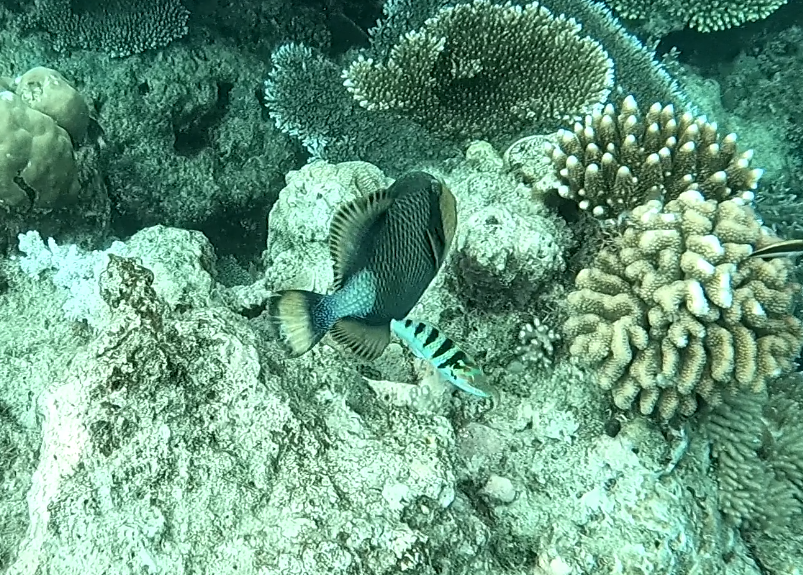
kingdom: Animalia
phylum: Chordata
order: Tetraodontiformes
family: Balistidae
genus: Balistoides
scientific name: Balistoides viridescens
